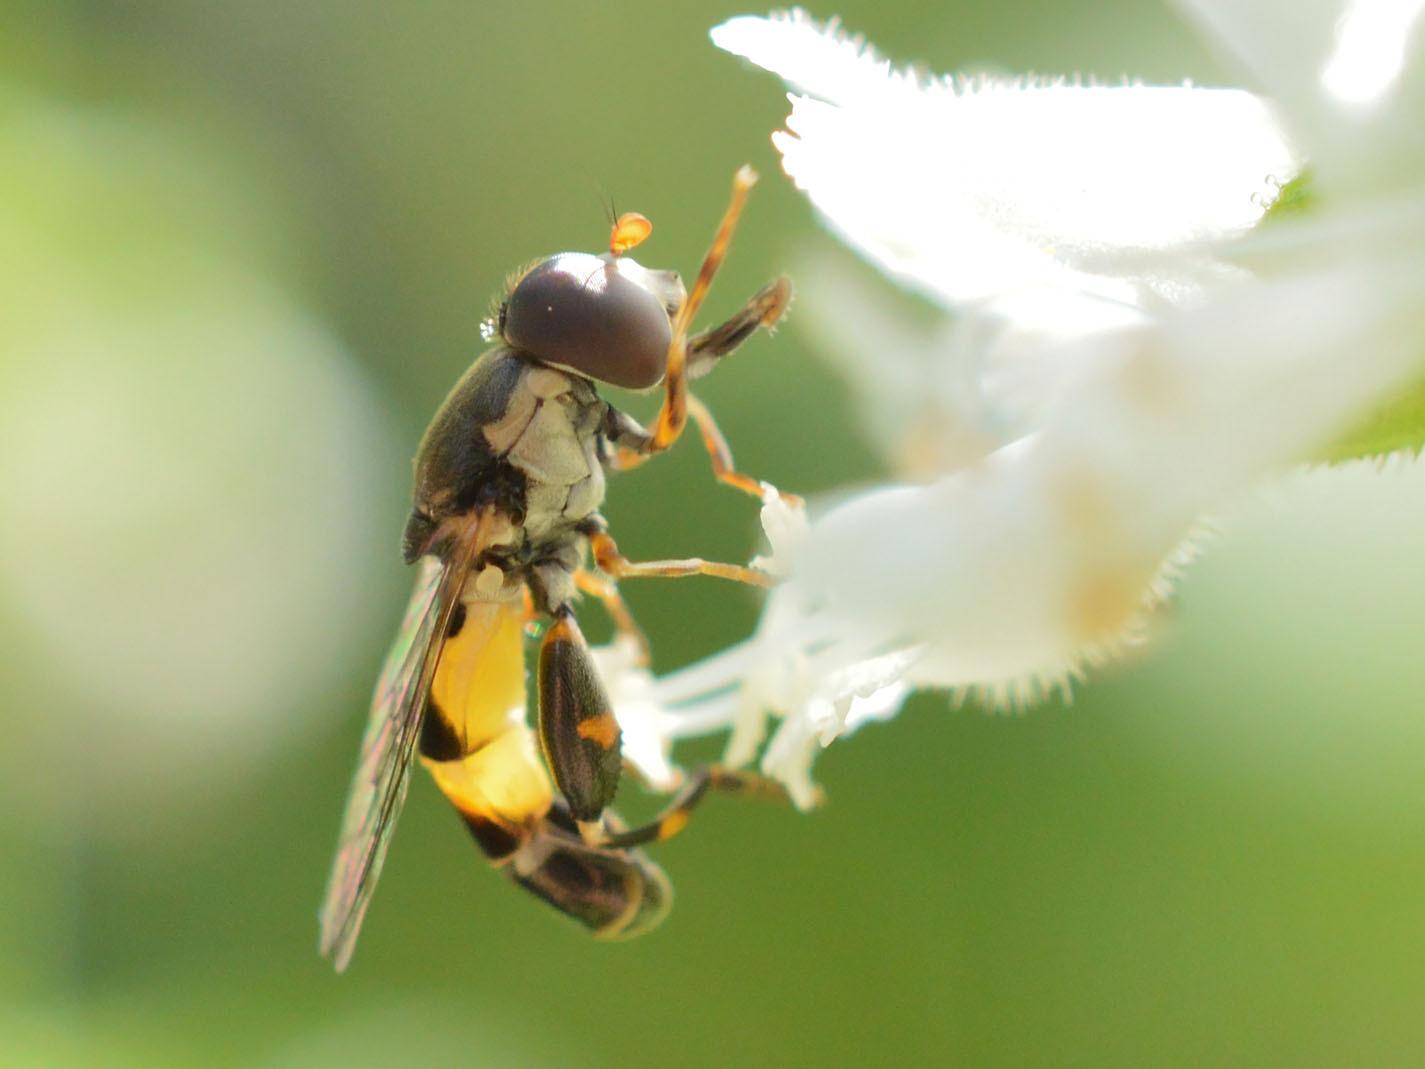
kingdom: Animalia
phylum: Arthropoda
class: Insecta
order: Diptera
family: Syrphidae
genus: Syritta
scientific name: Syritta pipiens
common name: Hover fly
